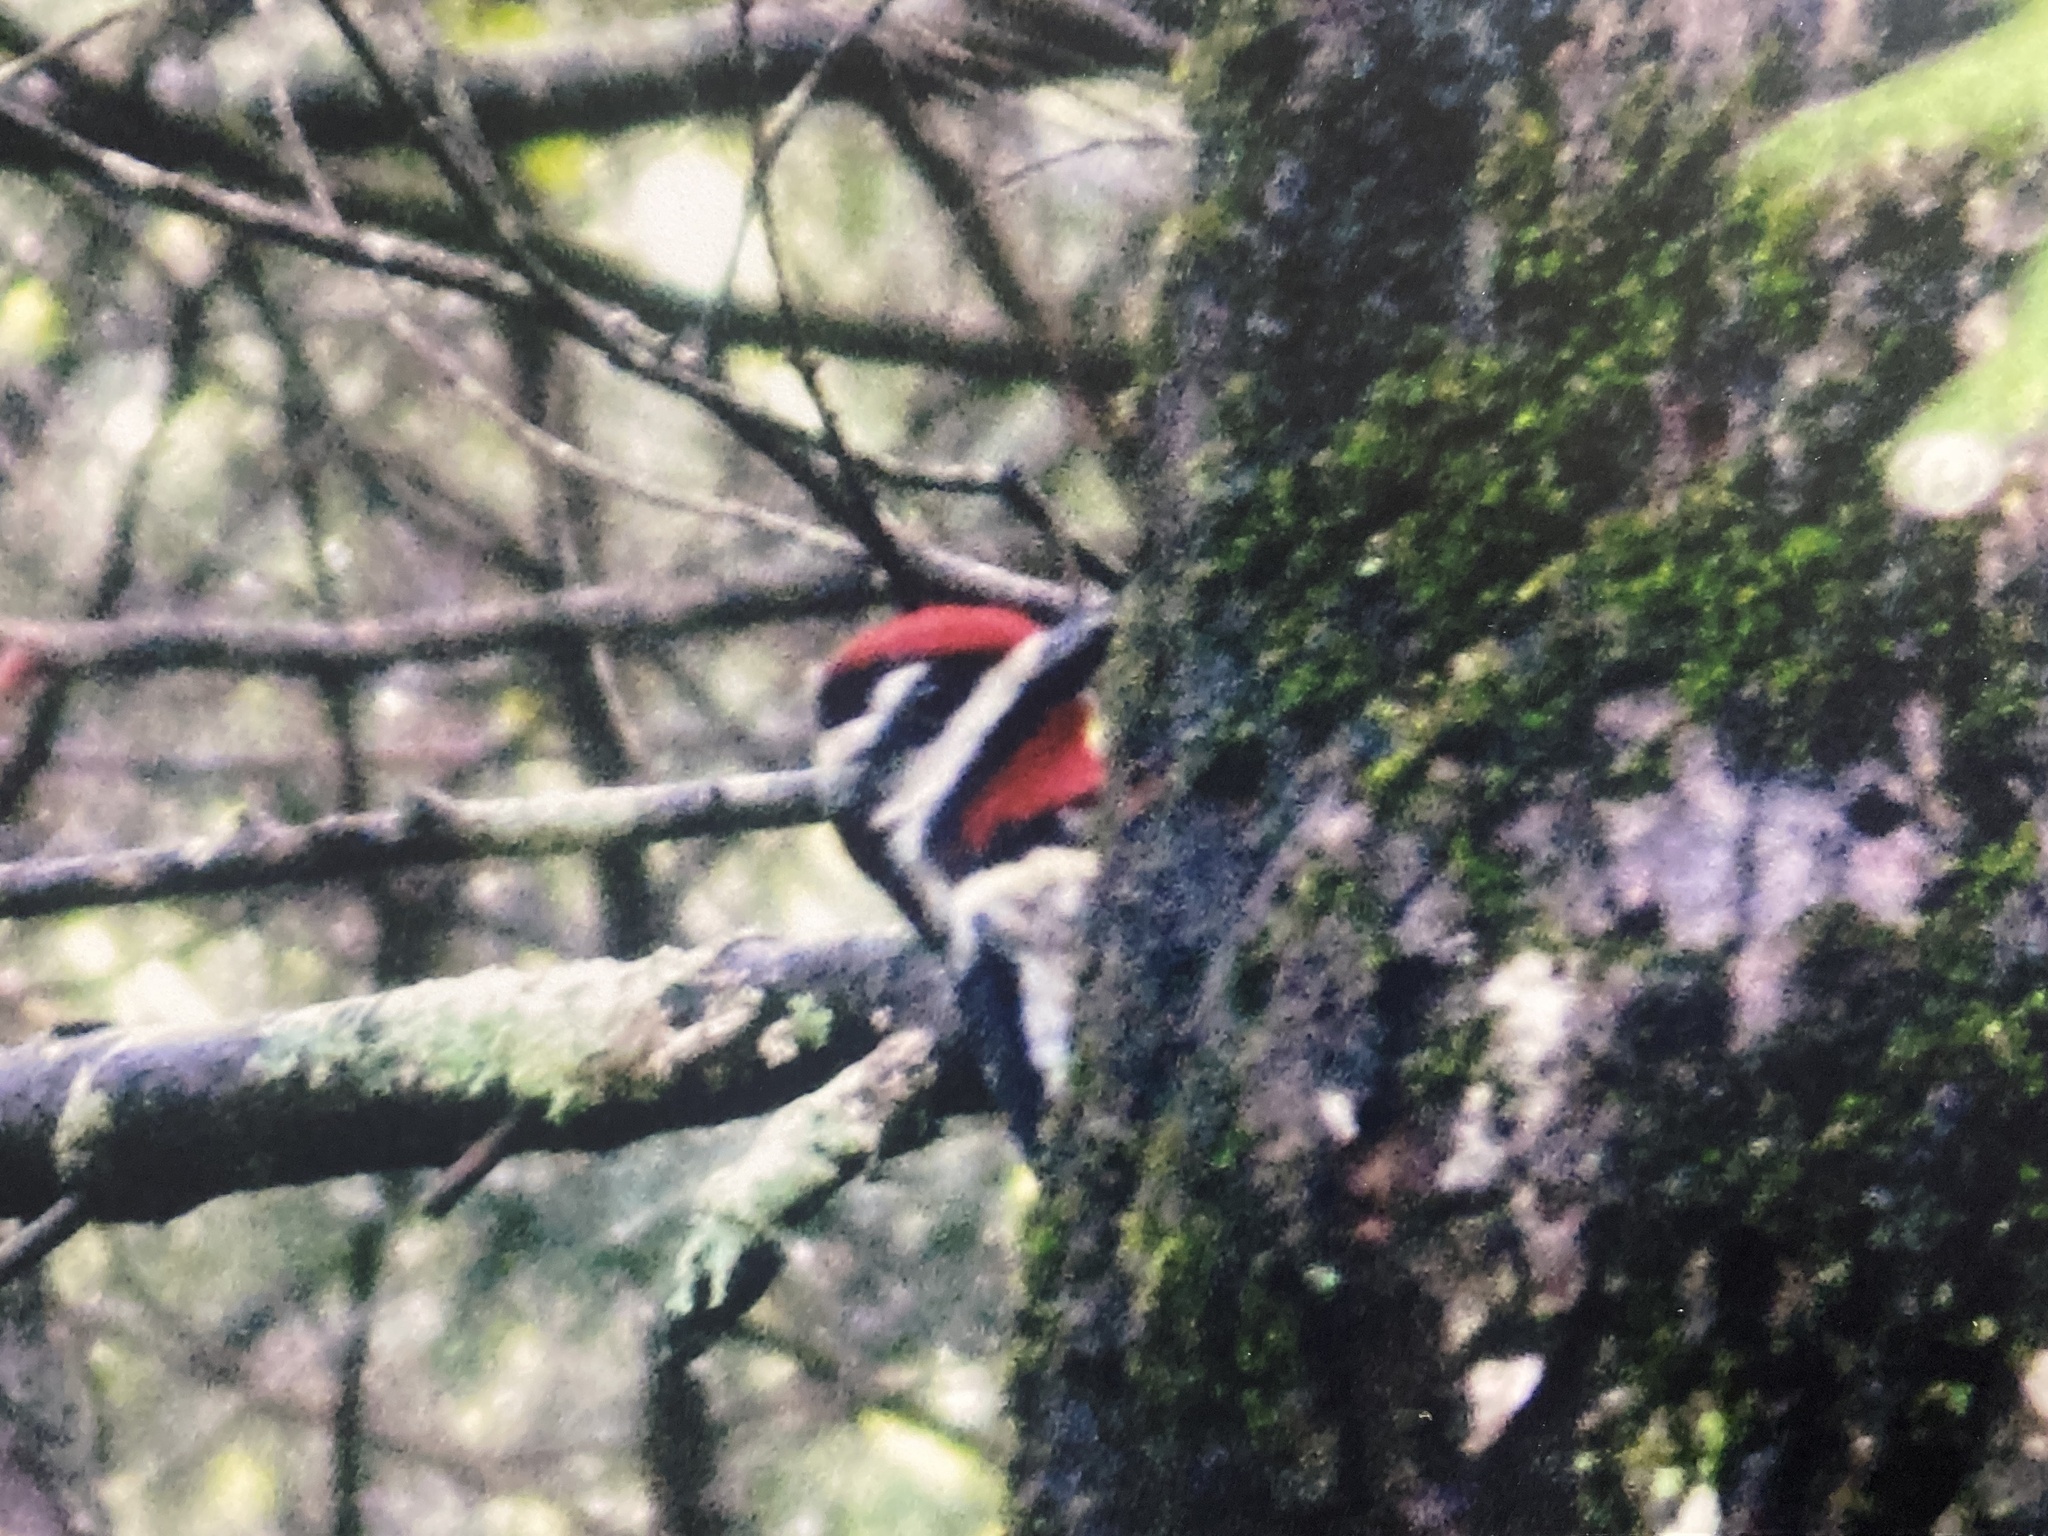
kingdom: Animalia
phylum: Chordata
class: Aves
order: Piciformes
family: Picidae
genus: Sphyrapicus
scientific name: Sphyrapicus varius
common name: Yellow-bellied sapsucker
